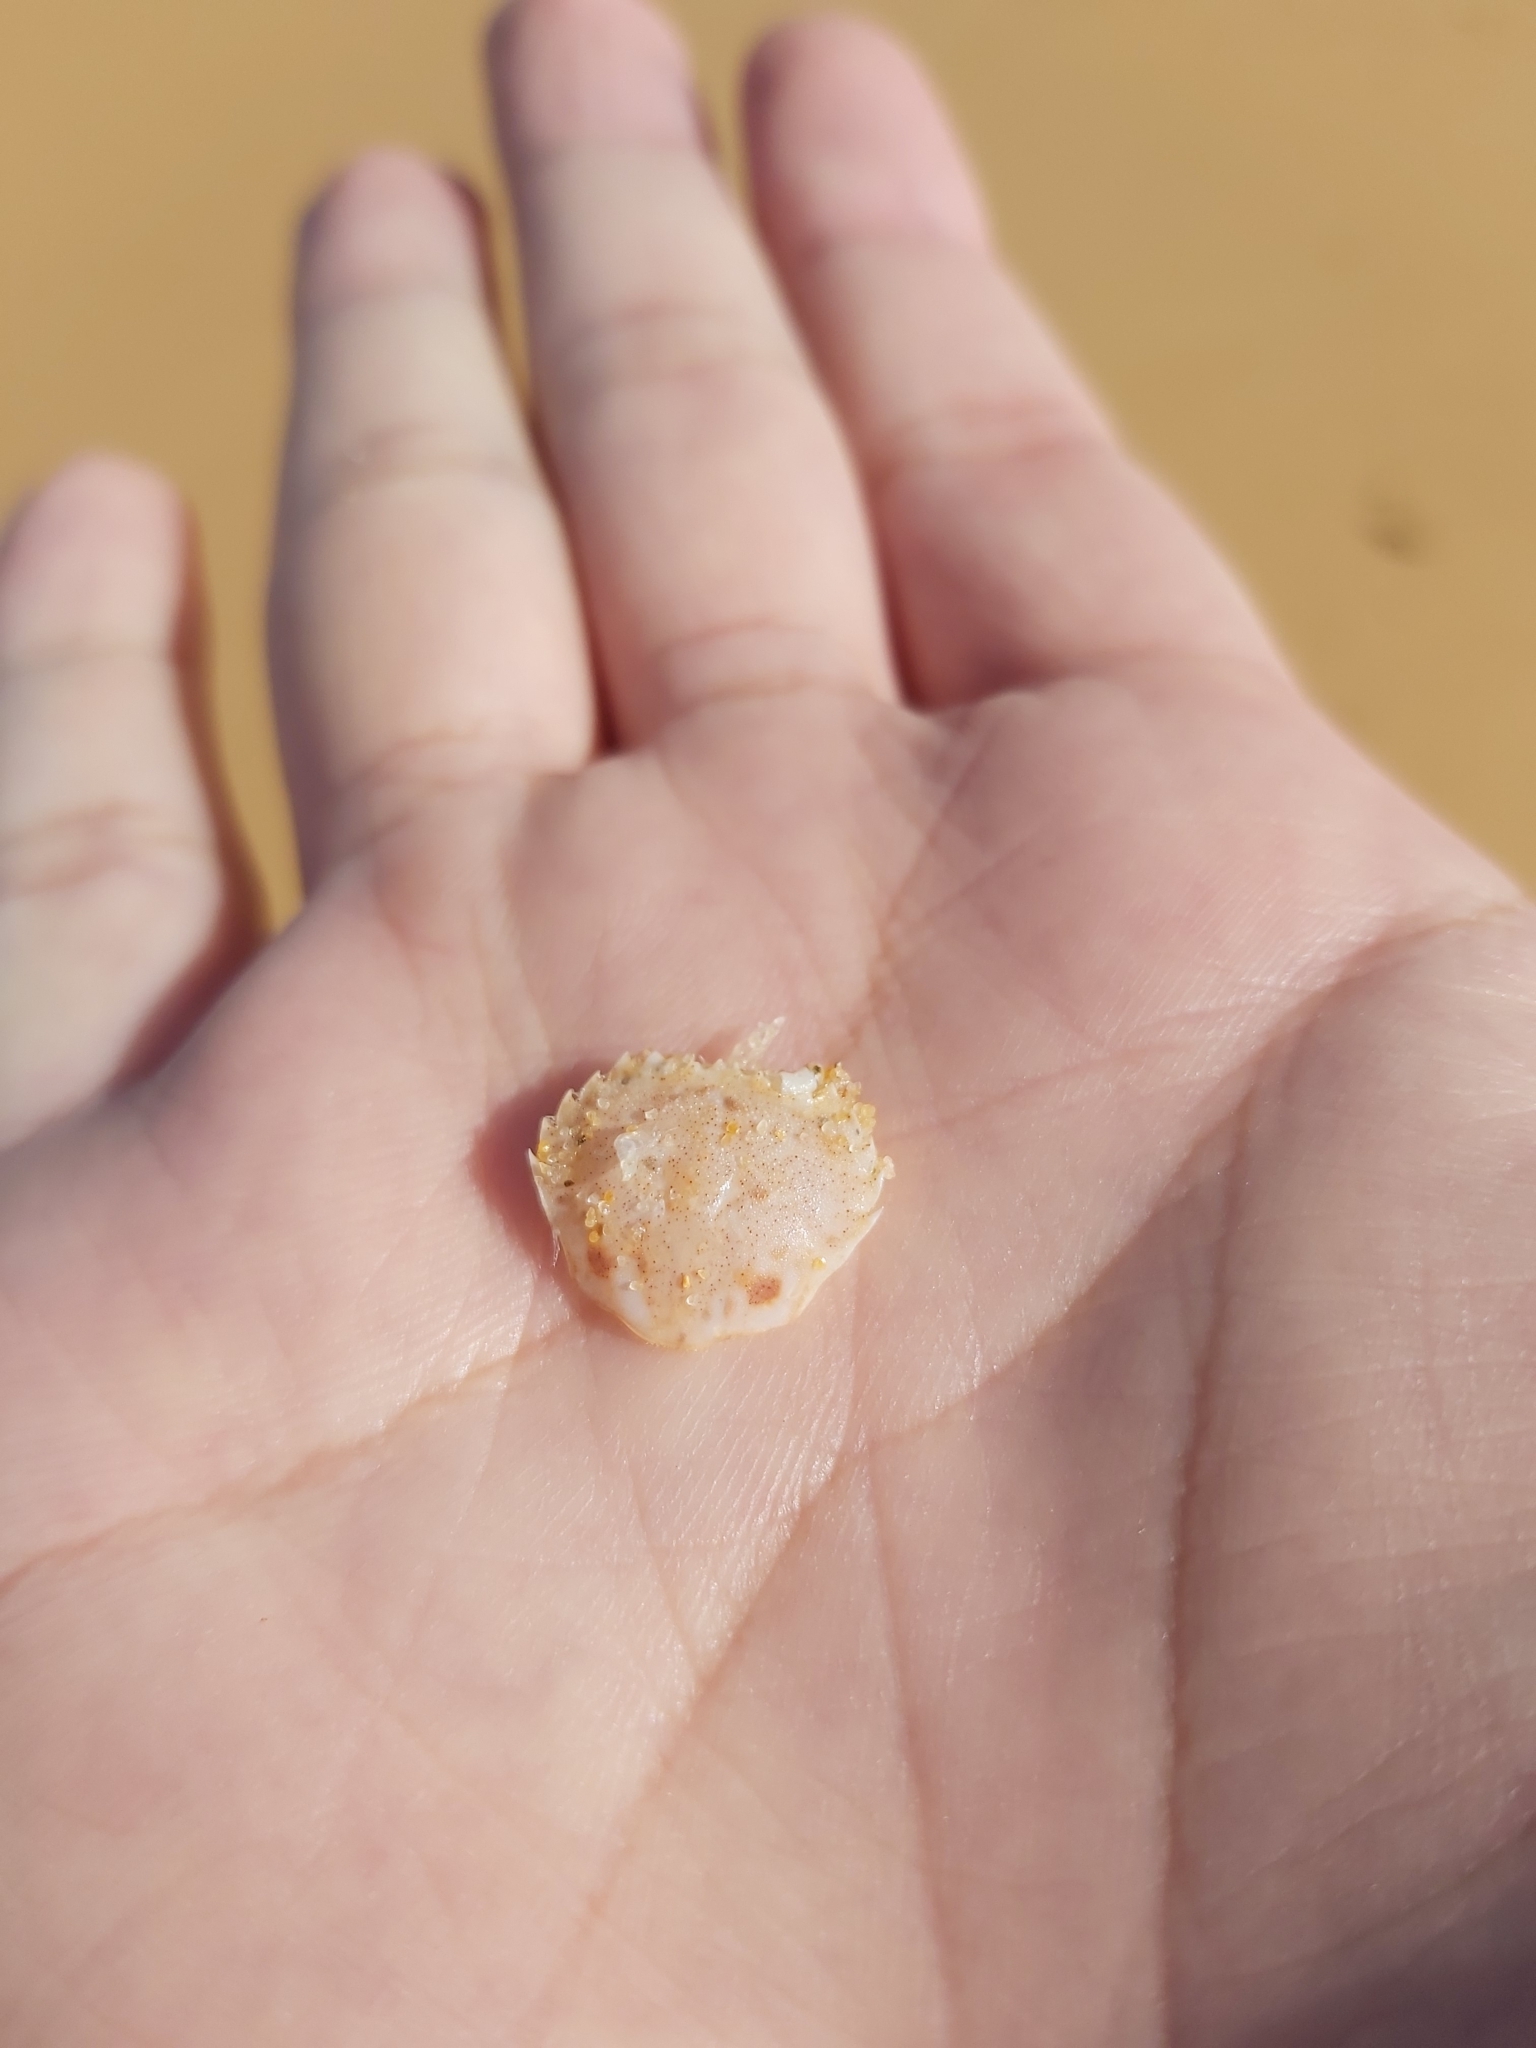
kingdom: Animalia
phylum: Arthropoda
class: Malacostraca
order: Decapoda
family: Ovalipidae
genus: Ovalipes
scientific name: Ovalipes australiensis
